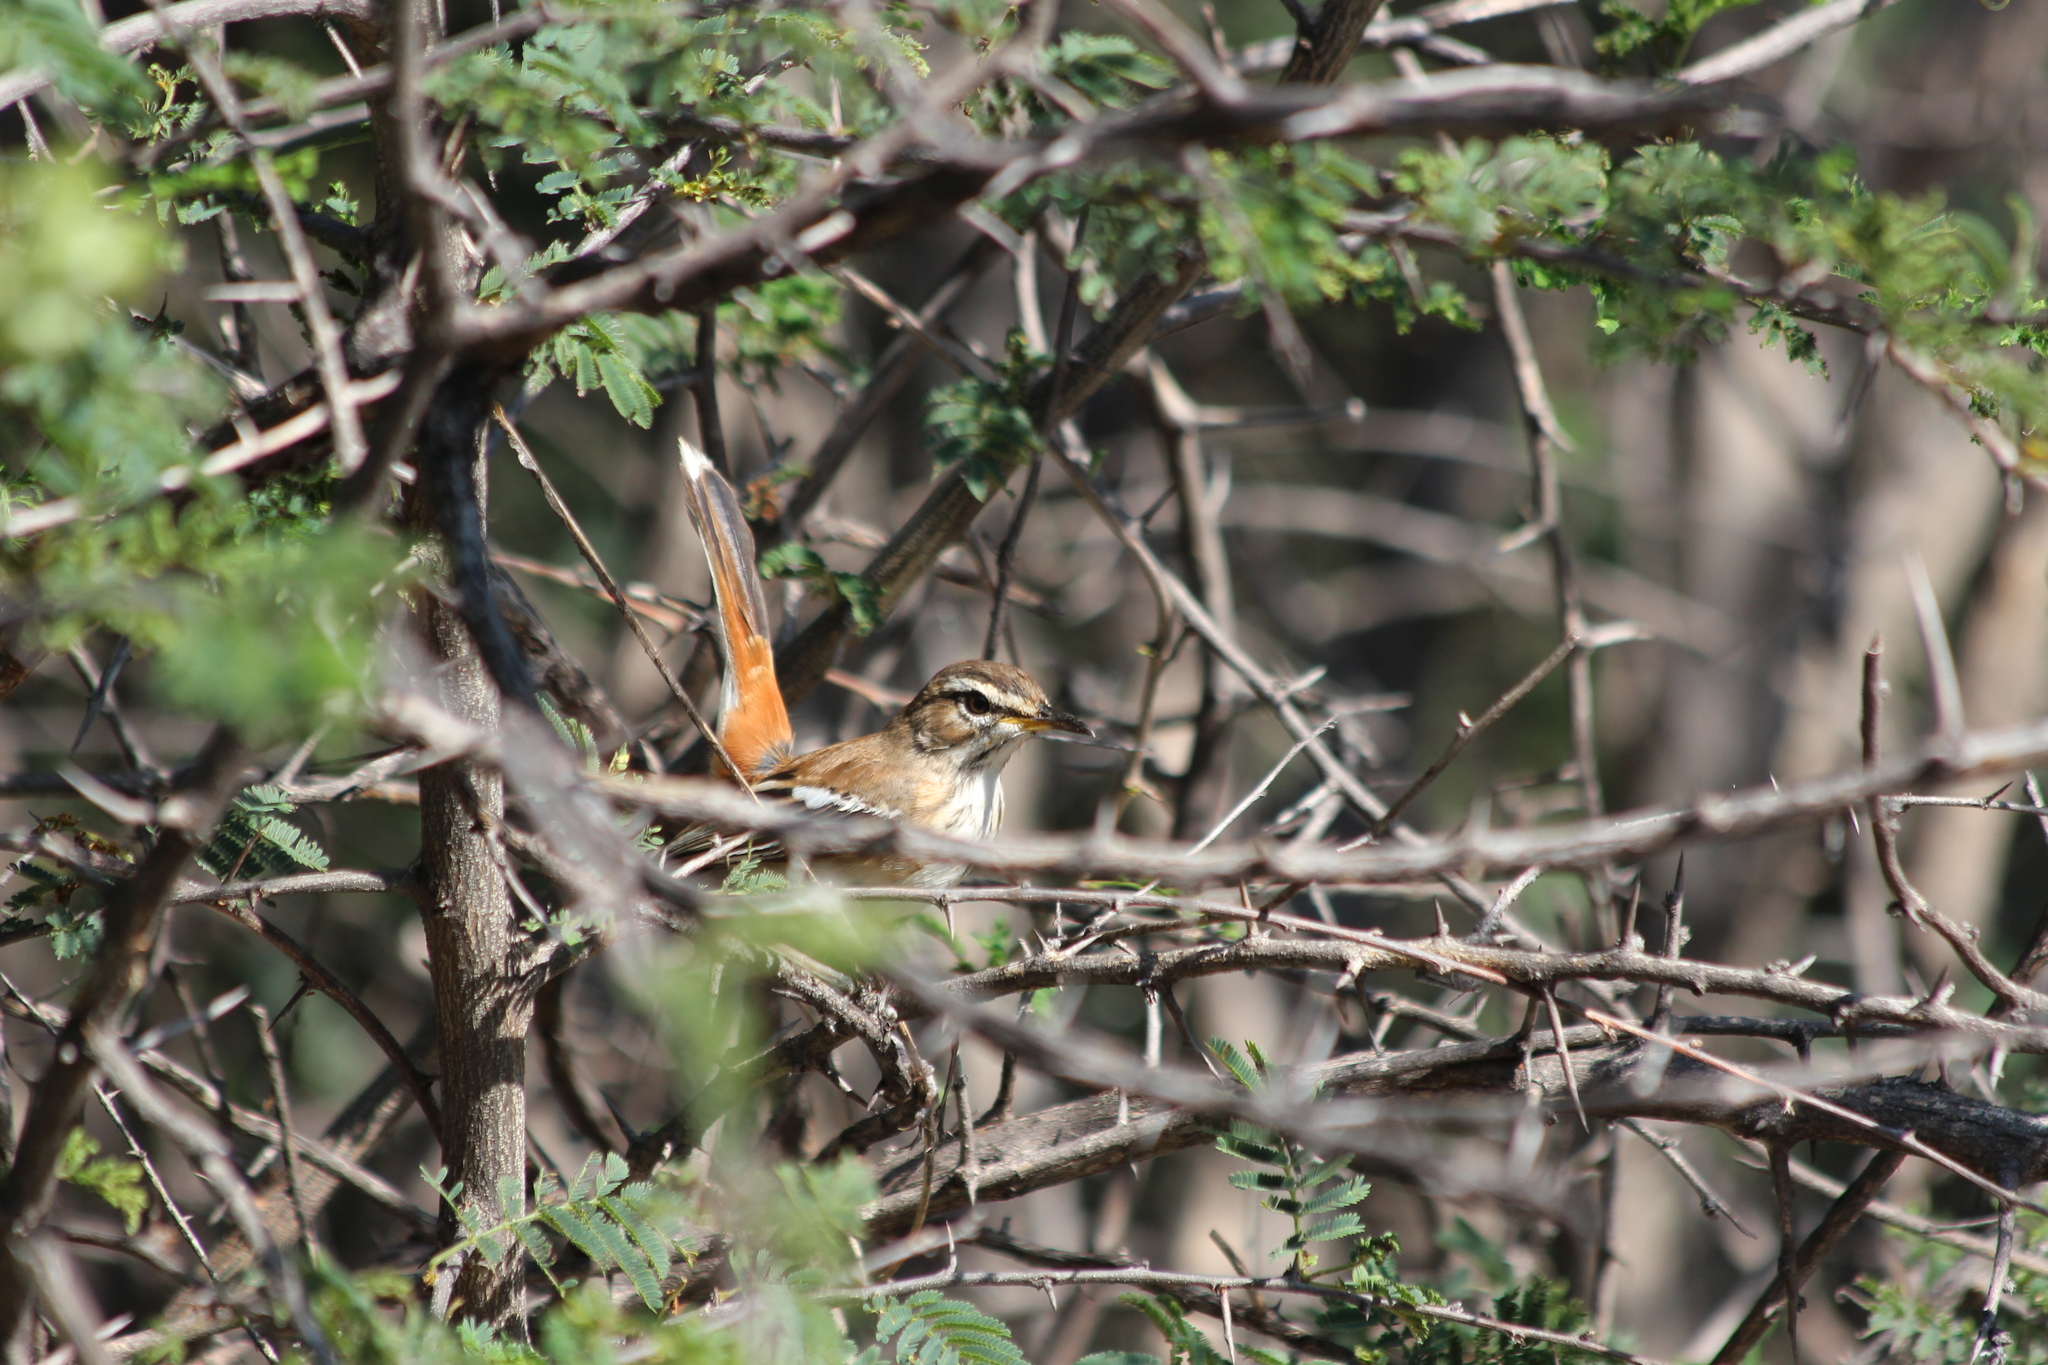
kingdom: Animalia
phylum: Chordata
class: Aves
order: Passeriformes
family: Muscicapidae
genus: Erythropygia
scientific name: Erythropygia leucophrys
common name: White-browed scrub robin
